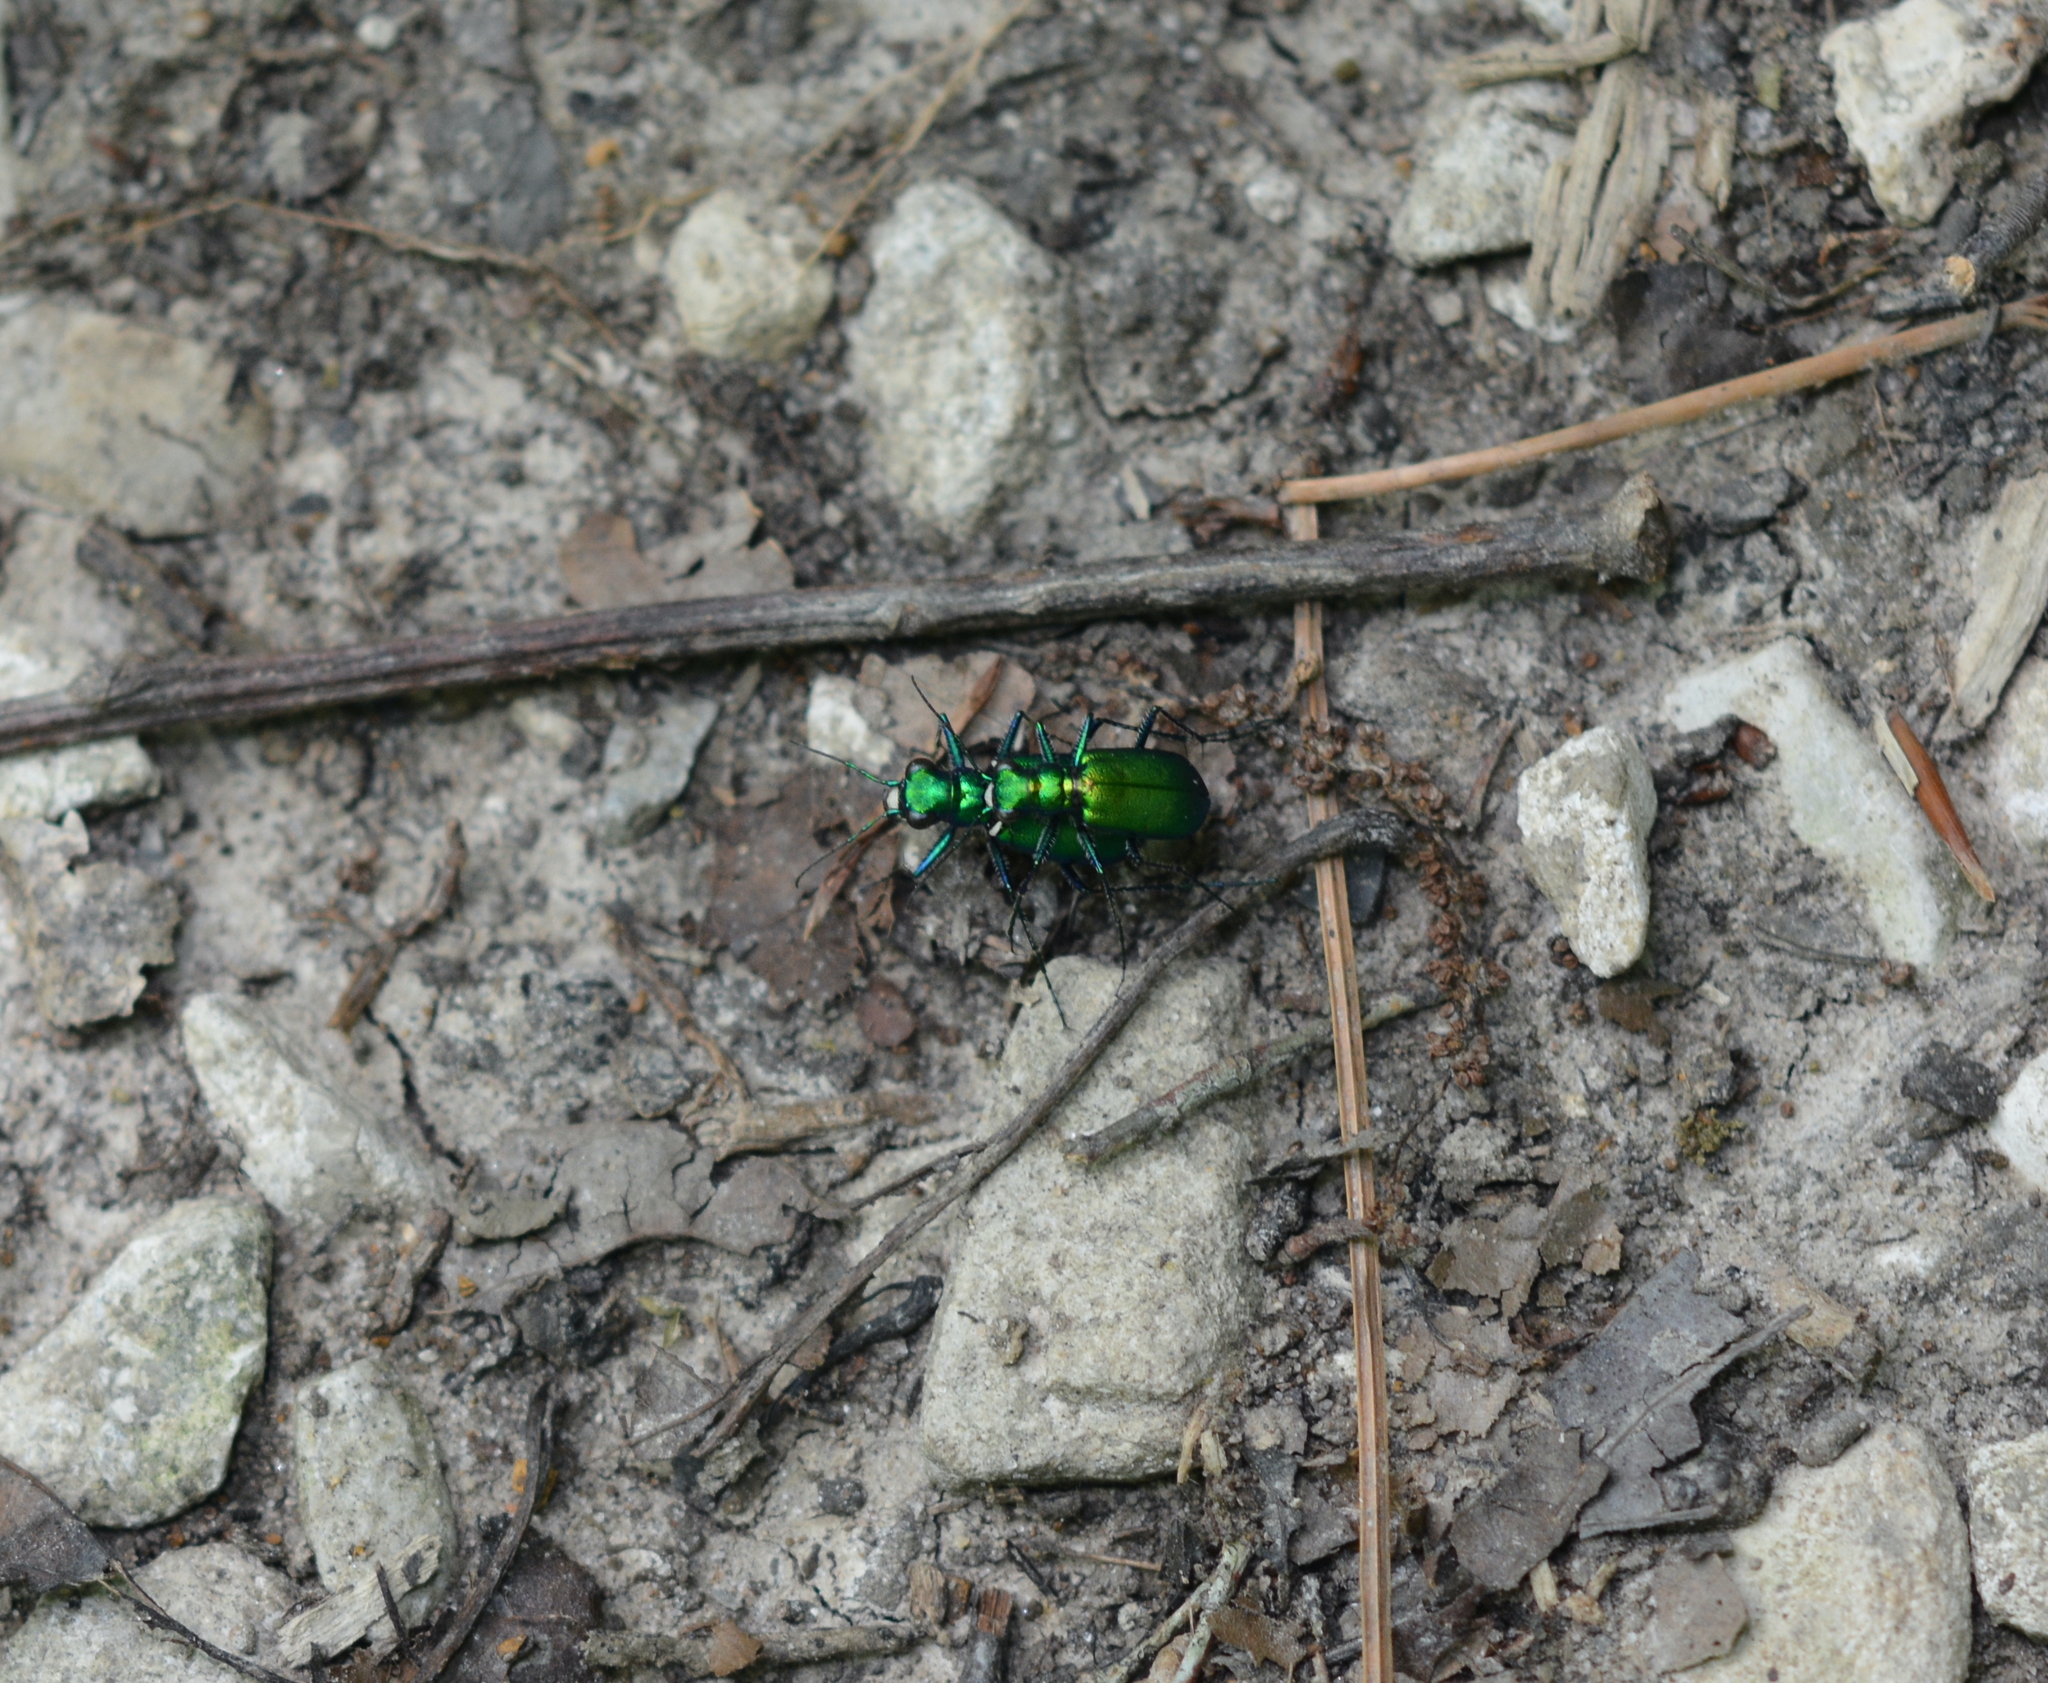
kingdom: Animalia
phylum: Arthropoda
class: Insecta
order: Coleoptera
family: Carabidae
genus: Cicindela
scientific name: Cicindela sexguttata
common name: Six-spotted tiger beetle
